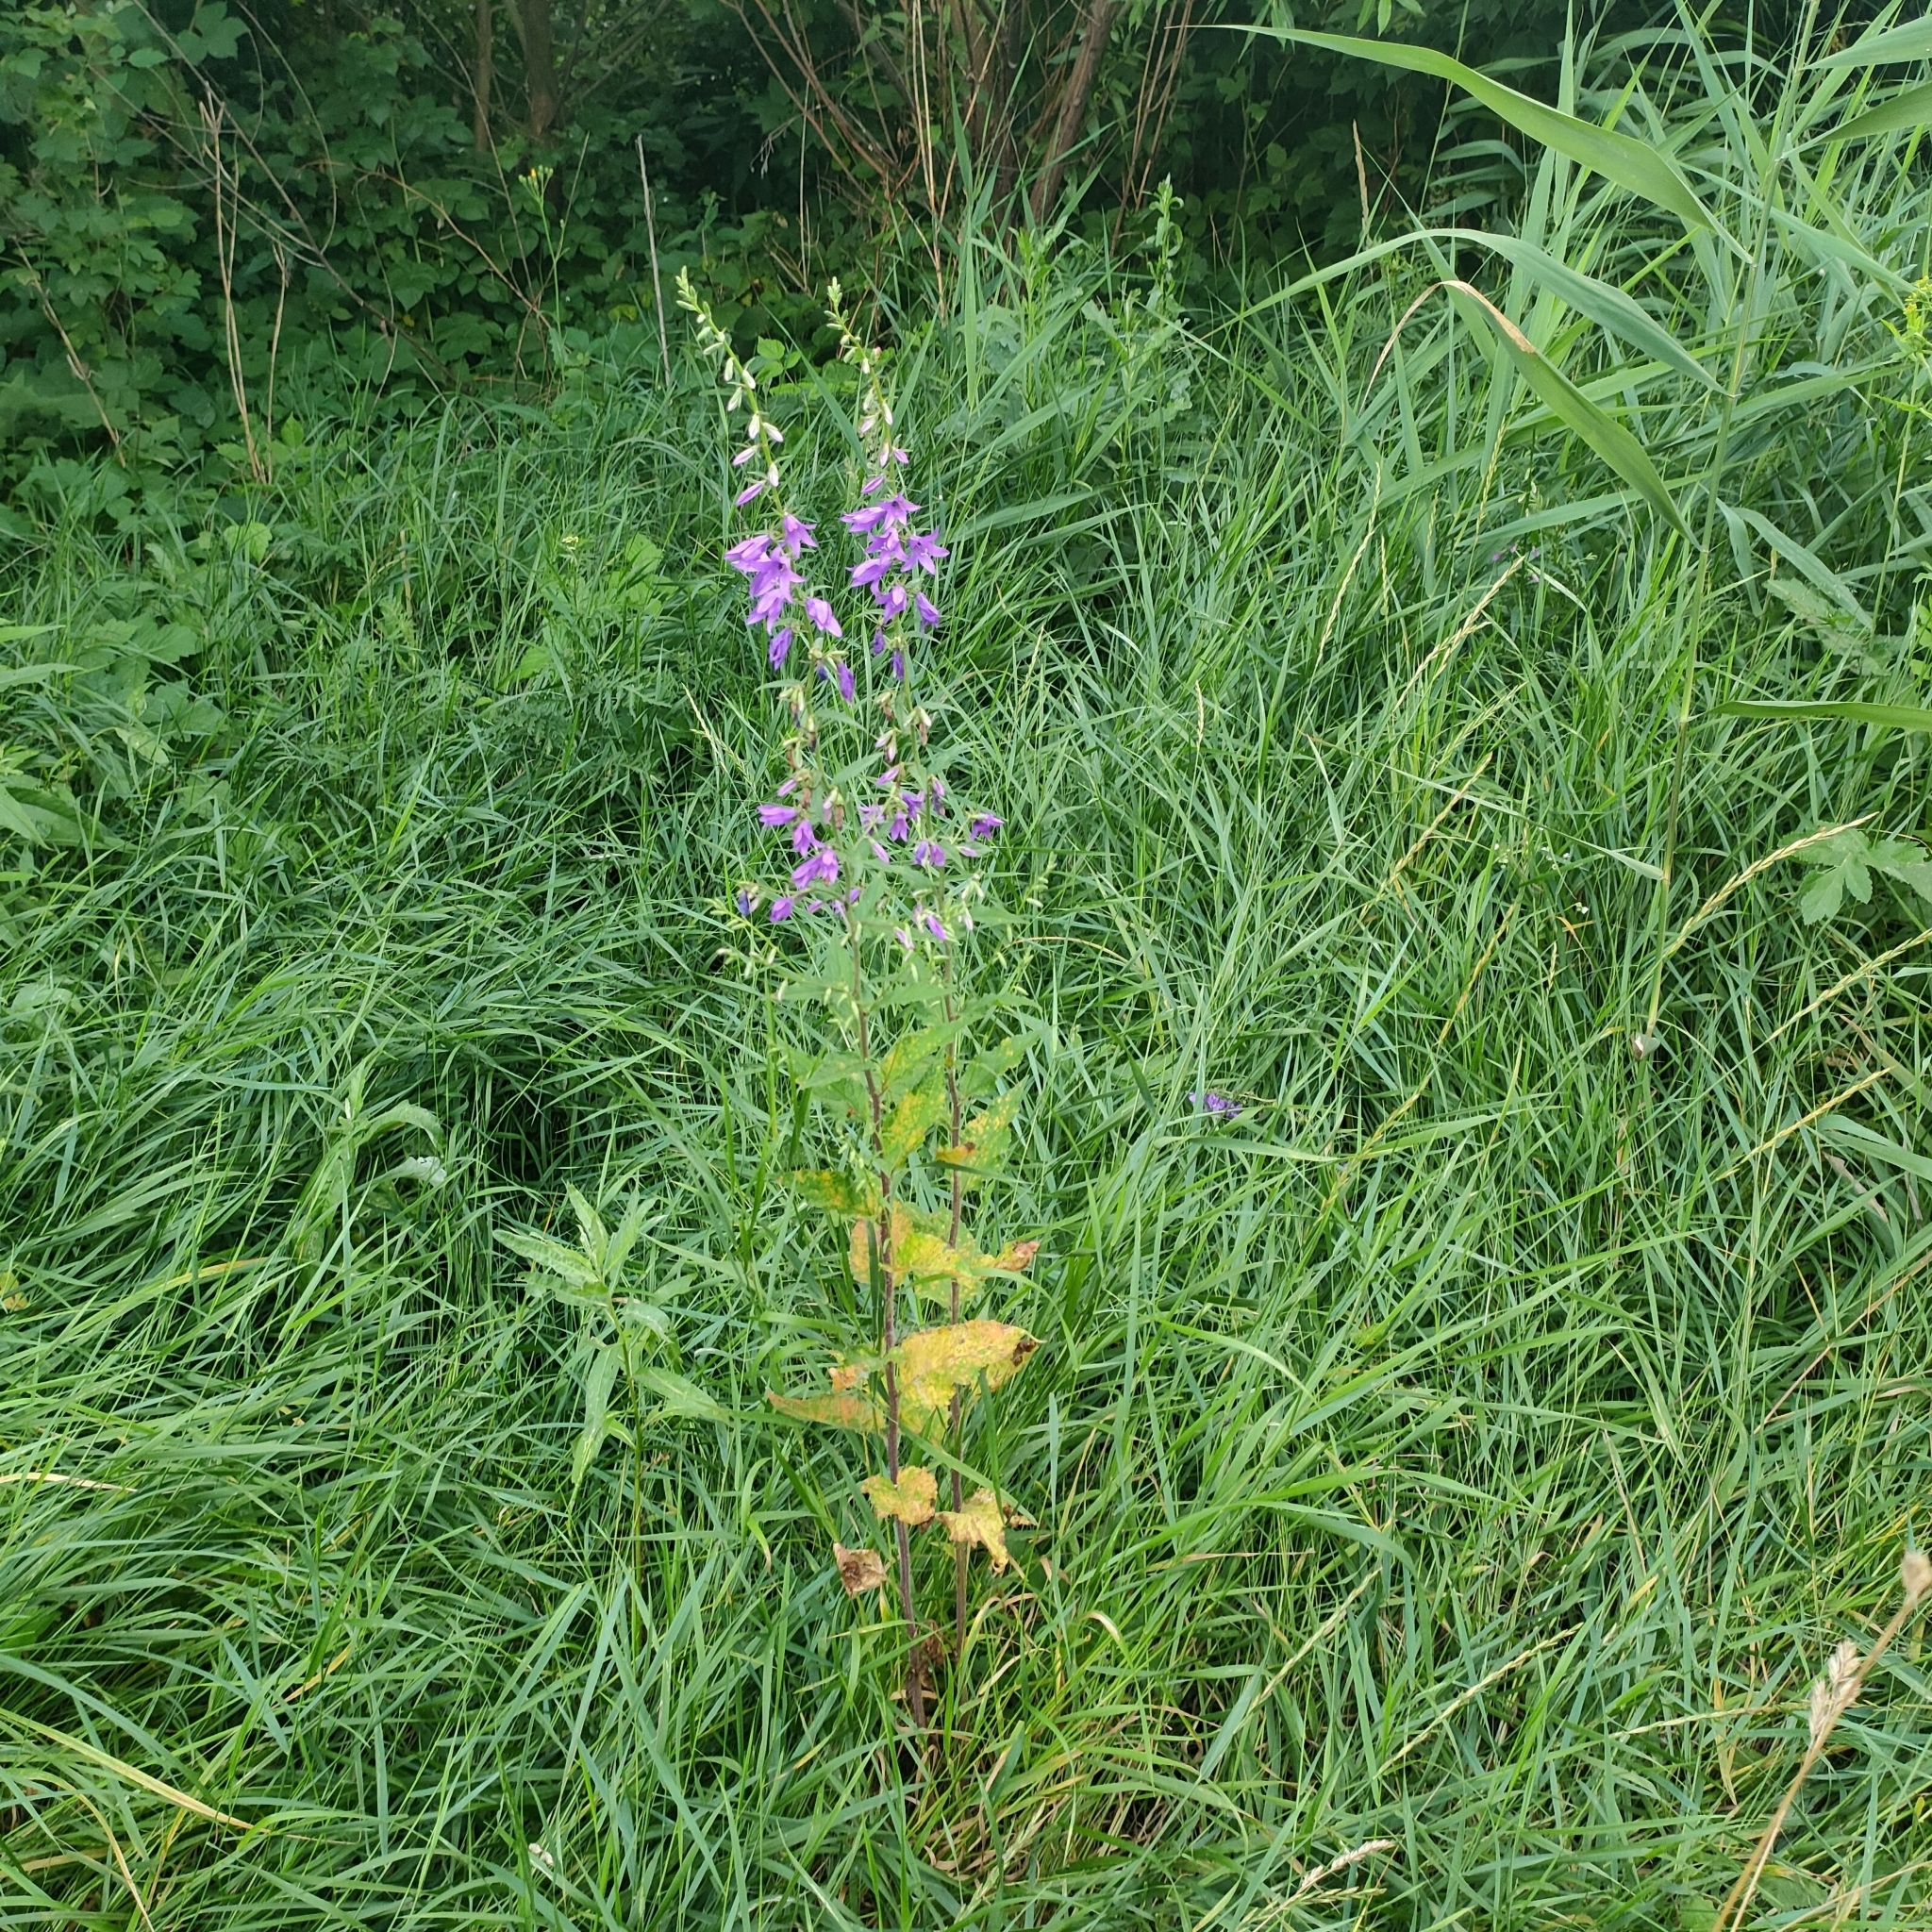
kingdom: Plantae
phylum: Tracheophyta
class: Magnoliopsida
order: Asterales
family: Campanulaceae
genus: Campanula
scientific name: Campanula rapunculoides
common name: Creeping bellflower
